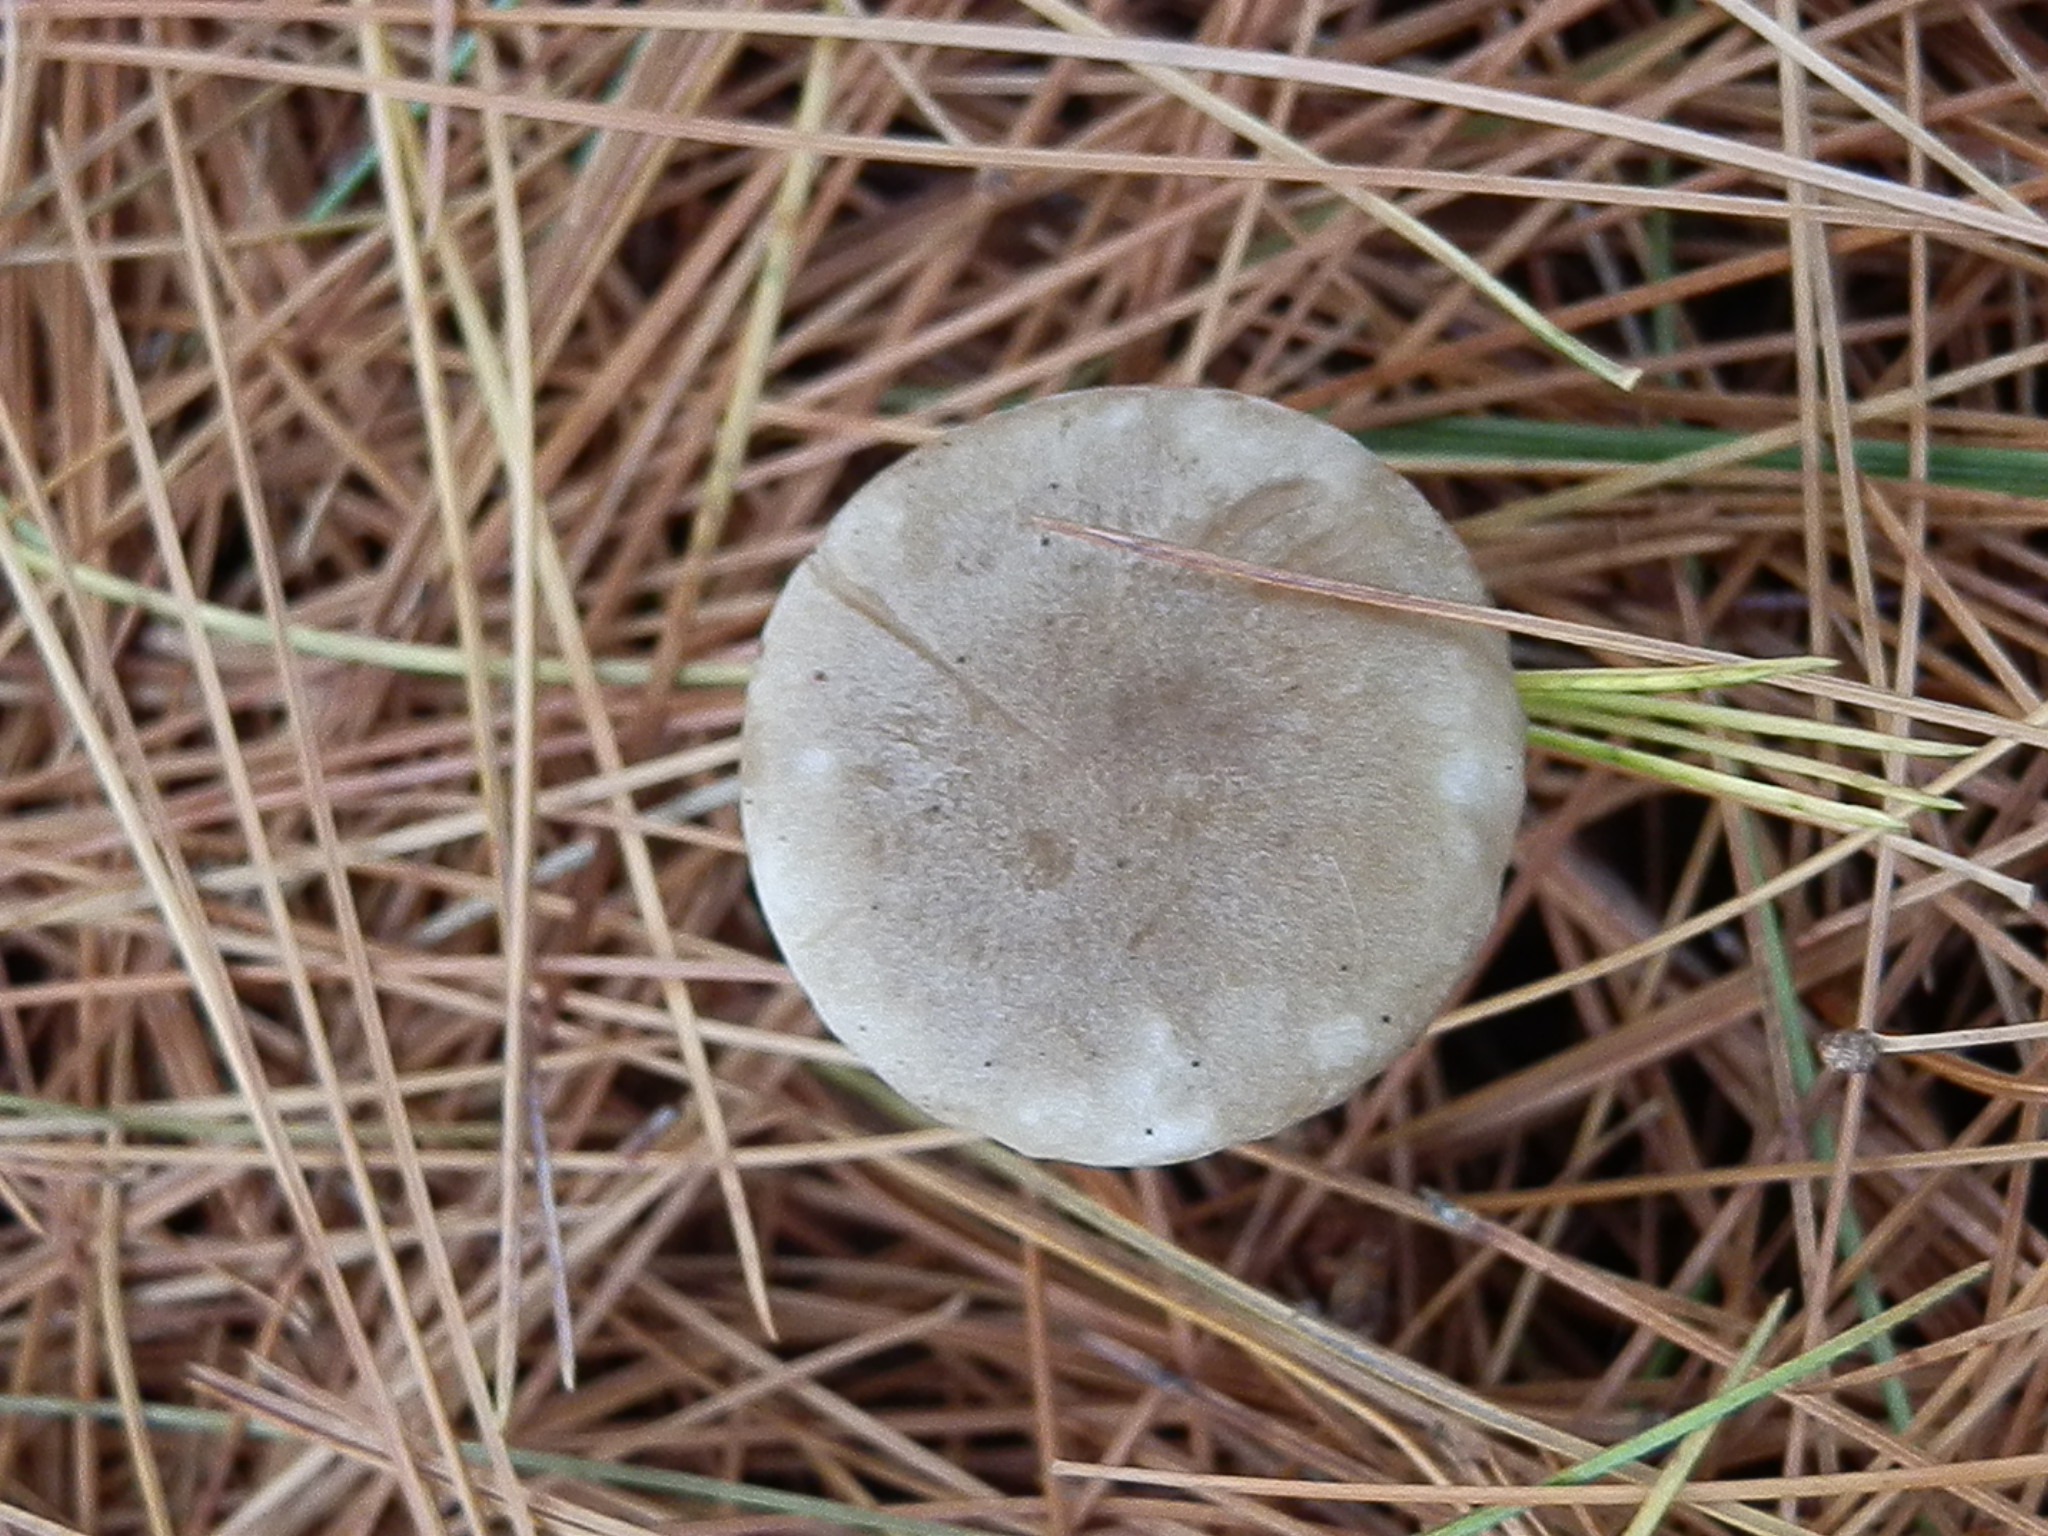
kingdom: Fungi
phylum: Basidiomycota
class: Agaricomycetes
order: Agaricales
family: Hygrophoraceae
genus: Ampulloclitocybe
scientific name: Ampulloclitocybe clavipes
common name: Club foot
